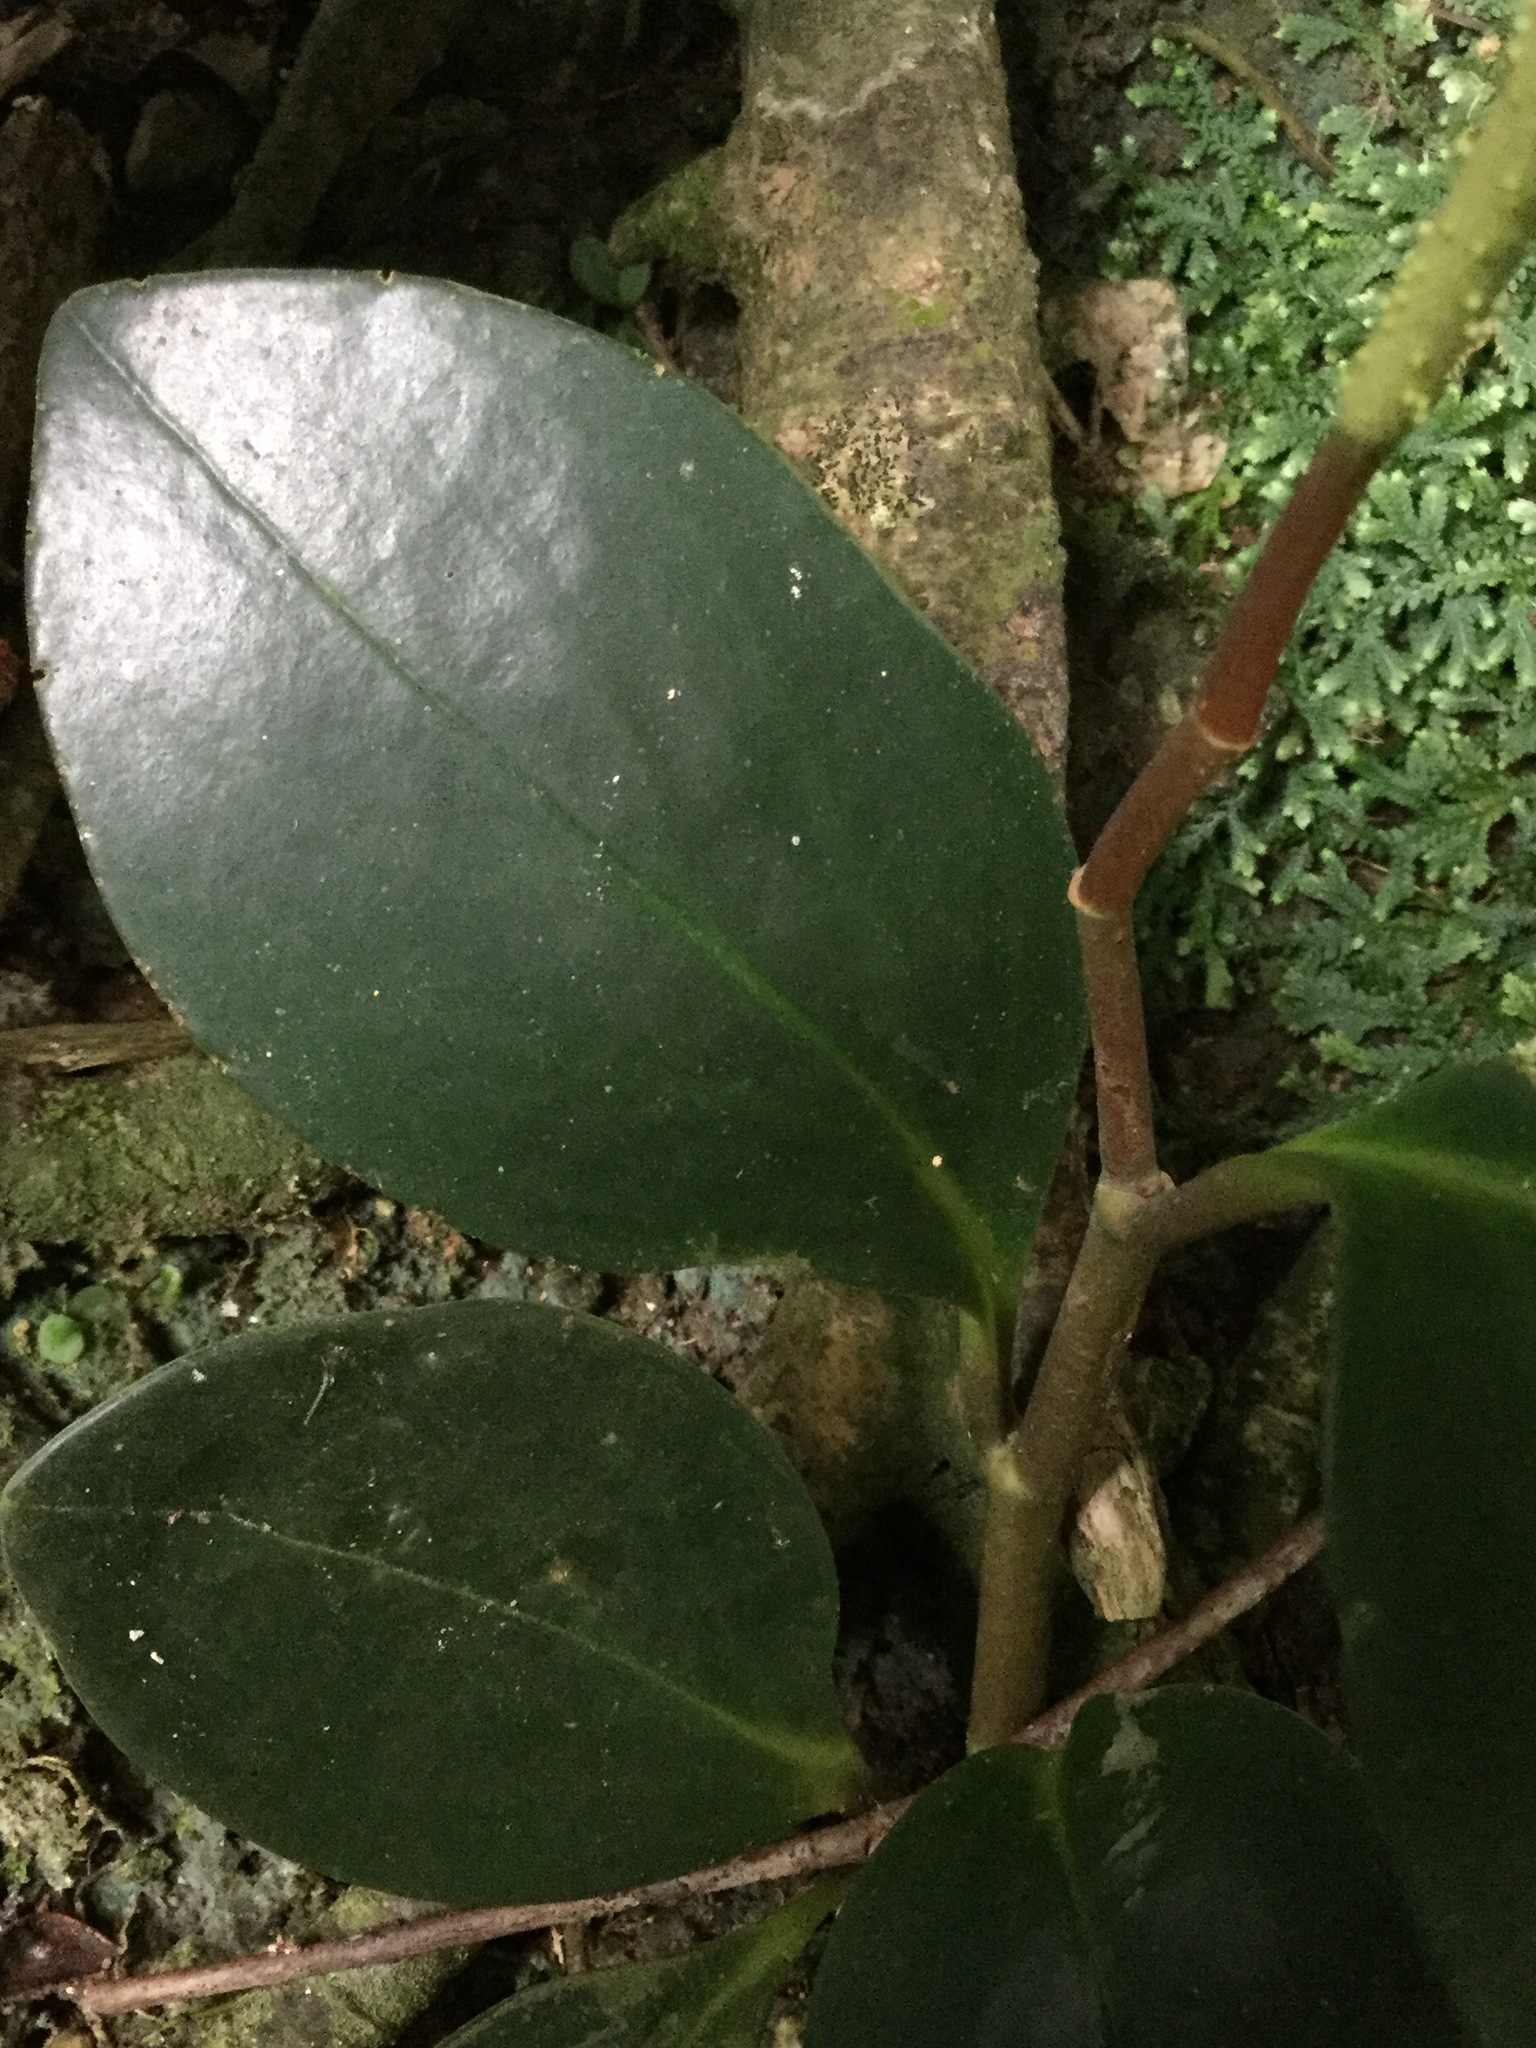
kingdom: Plantae
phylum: Tracheophyta
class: Magnoliopsida
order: Piperales
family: Piperaceae
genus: Peperomia
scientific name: Peperomia obtusifolia
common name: Baby rubberplant
